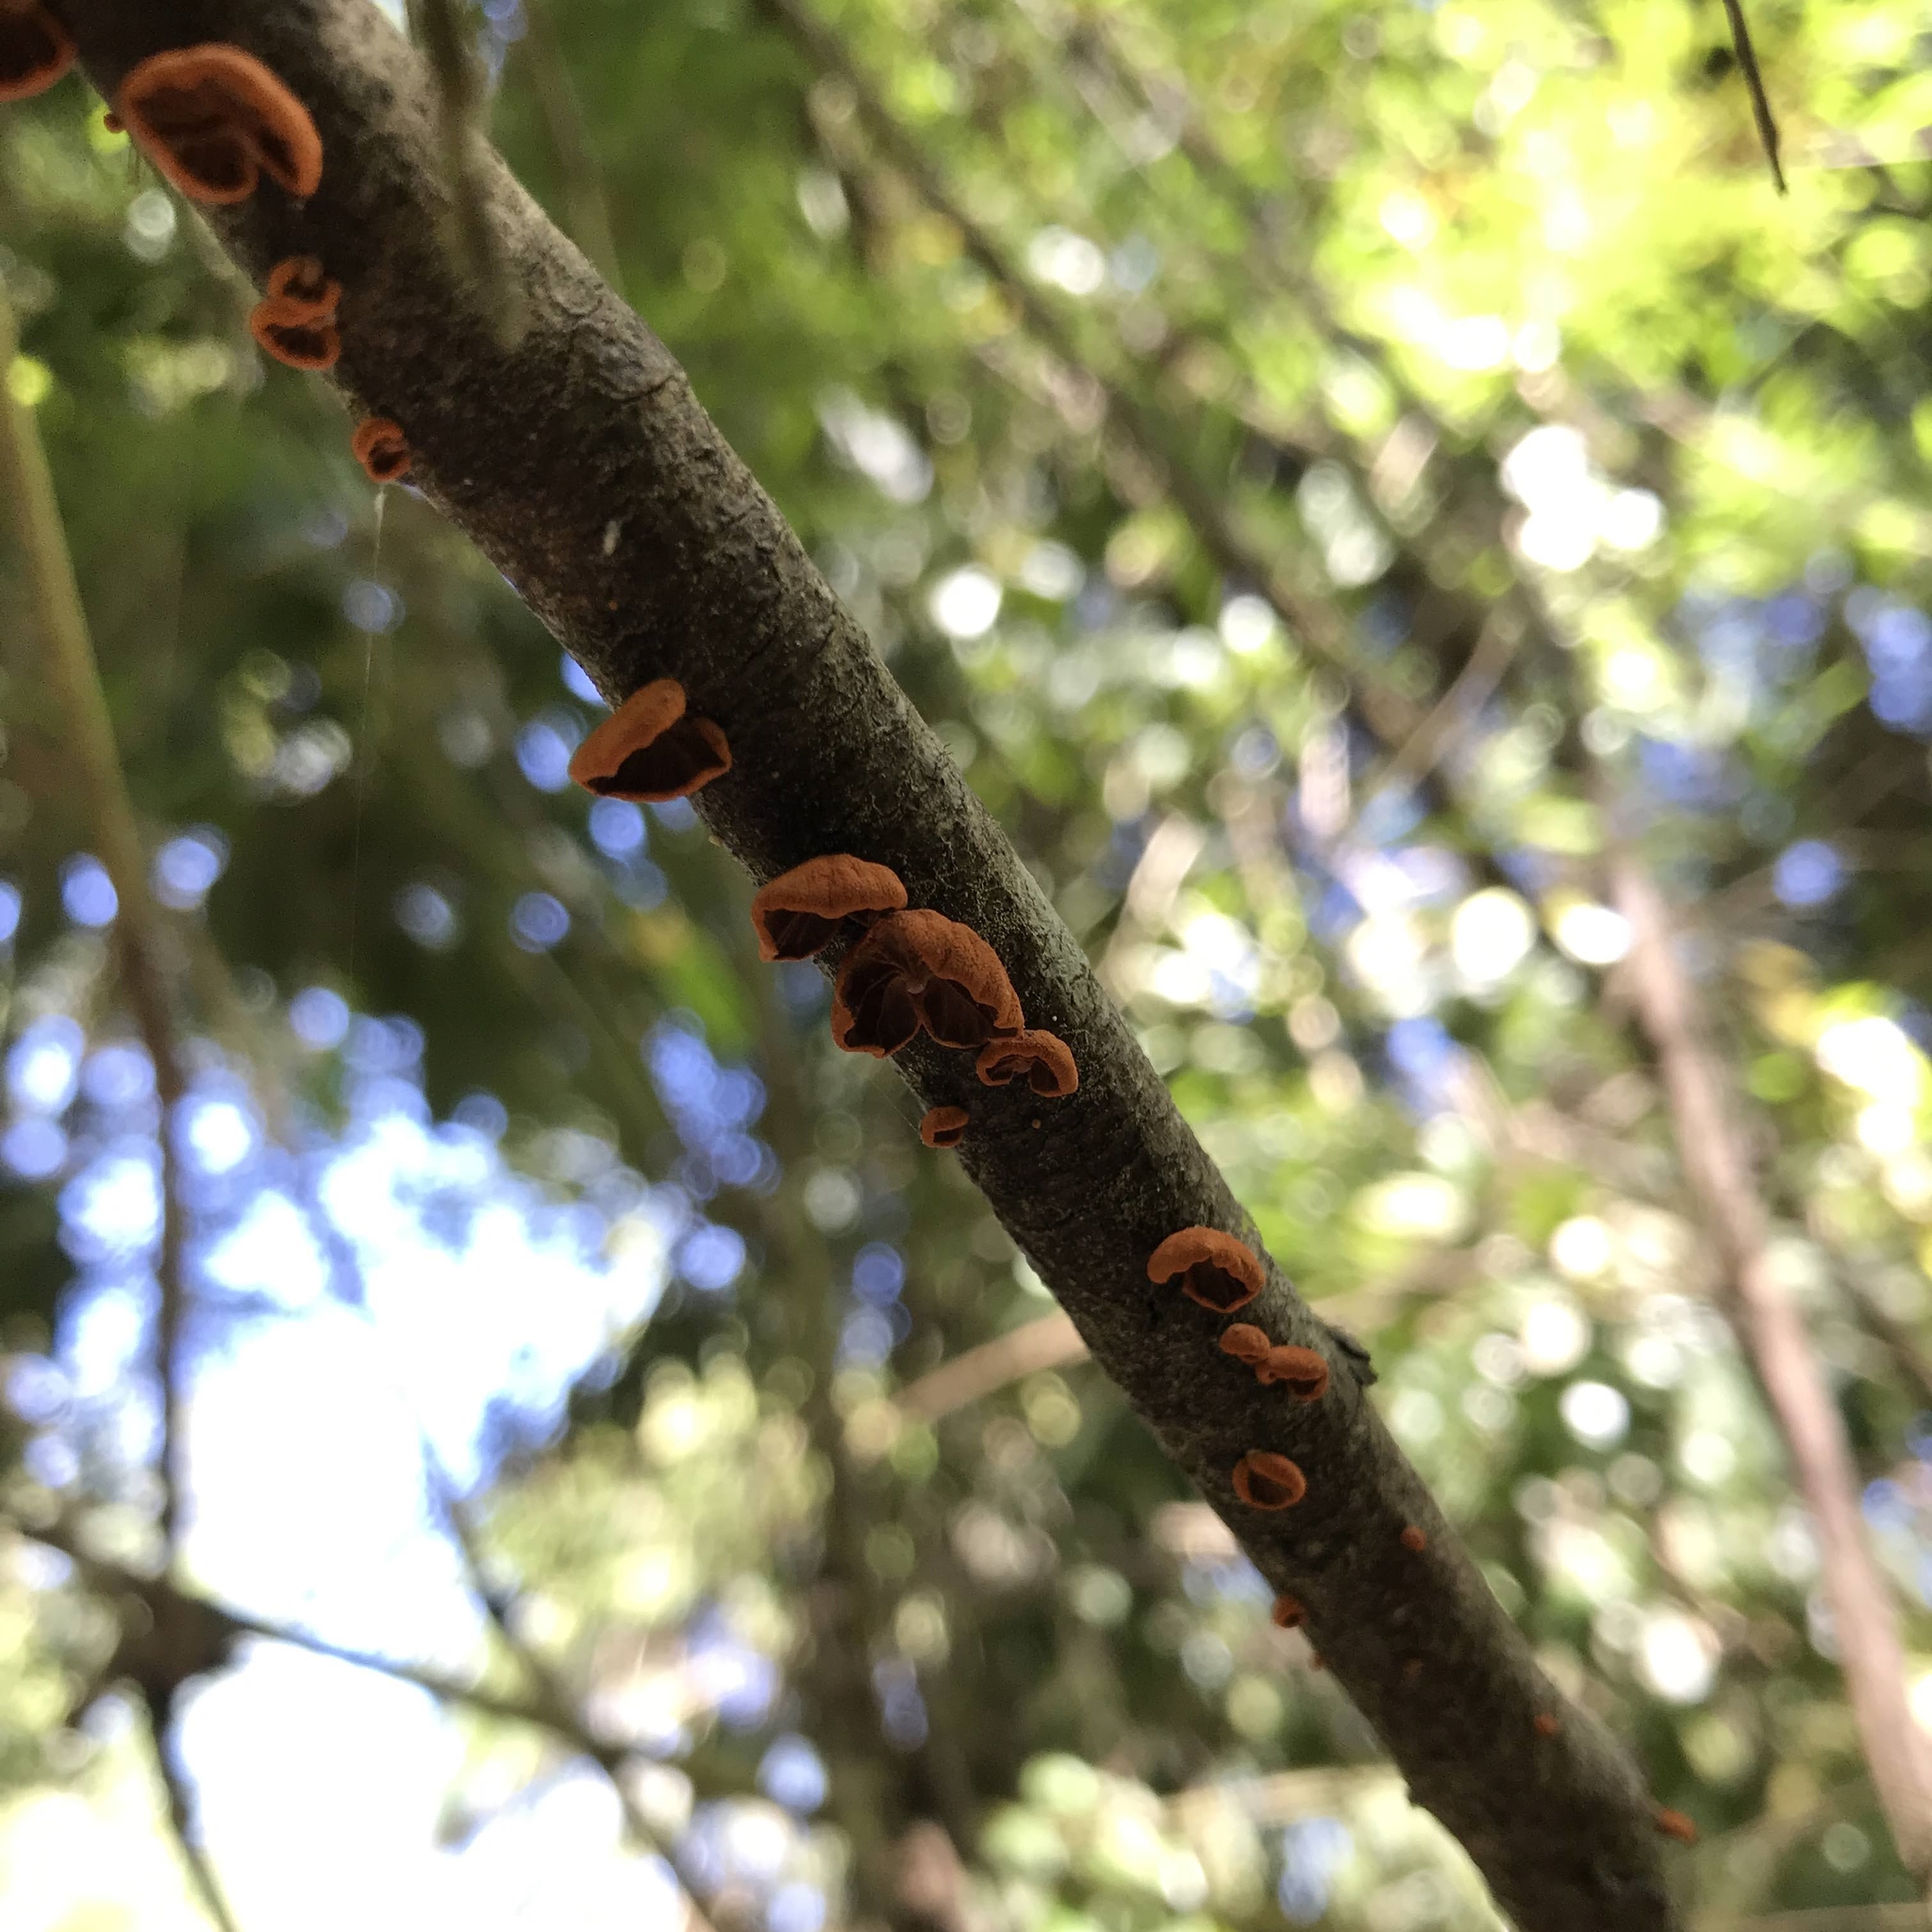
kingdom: Fungi
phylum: Basidiomycota
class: Agaricomycetes
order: Agaricales
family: Omphalotaceae
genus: Anthracophyllum
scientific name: Anthracophyllum discolor
